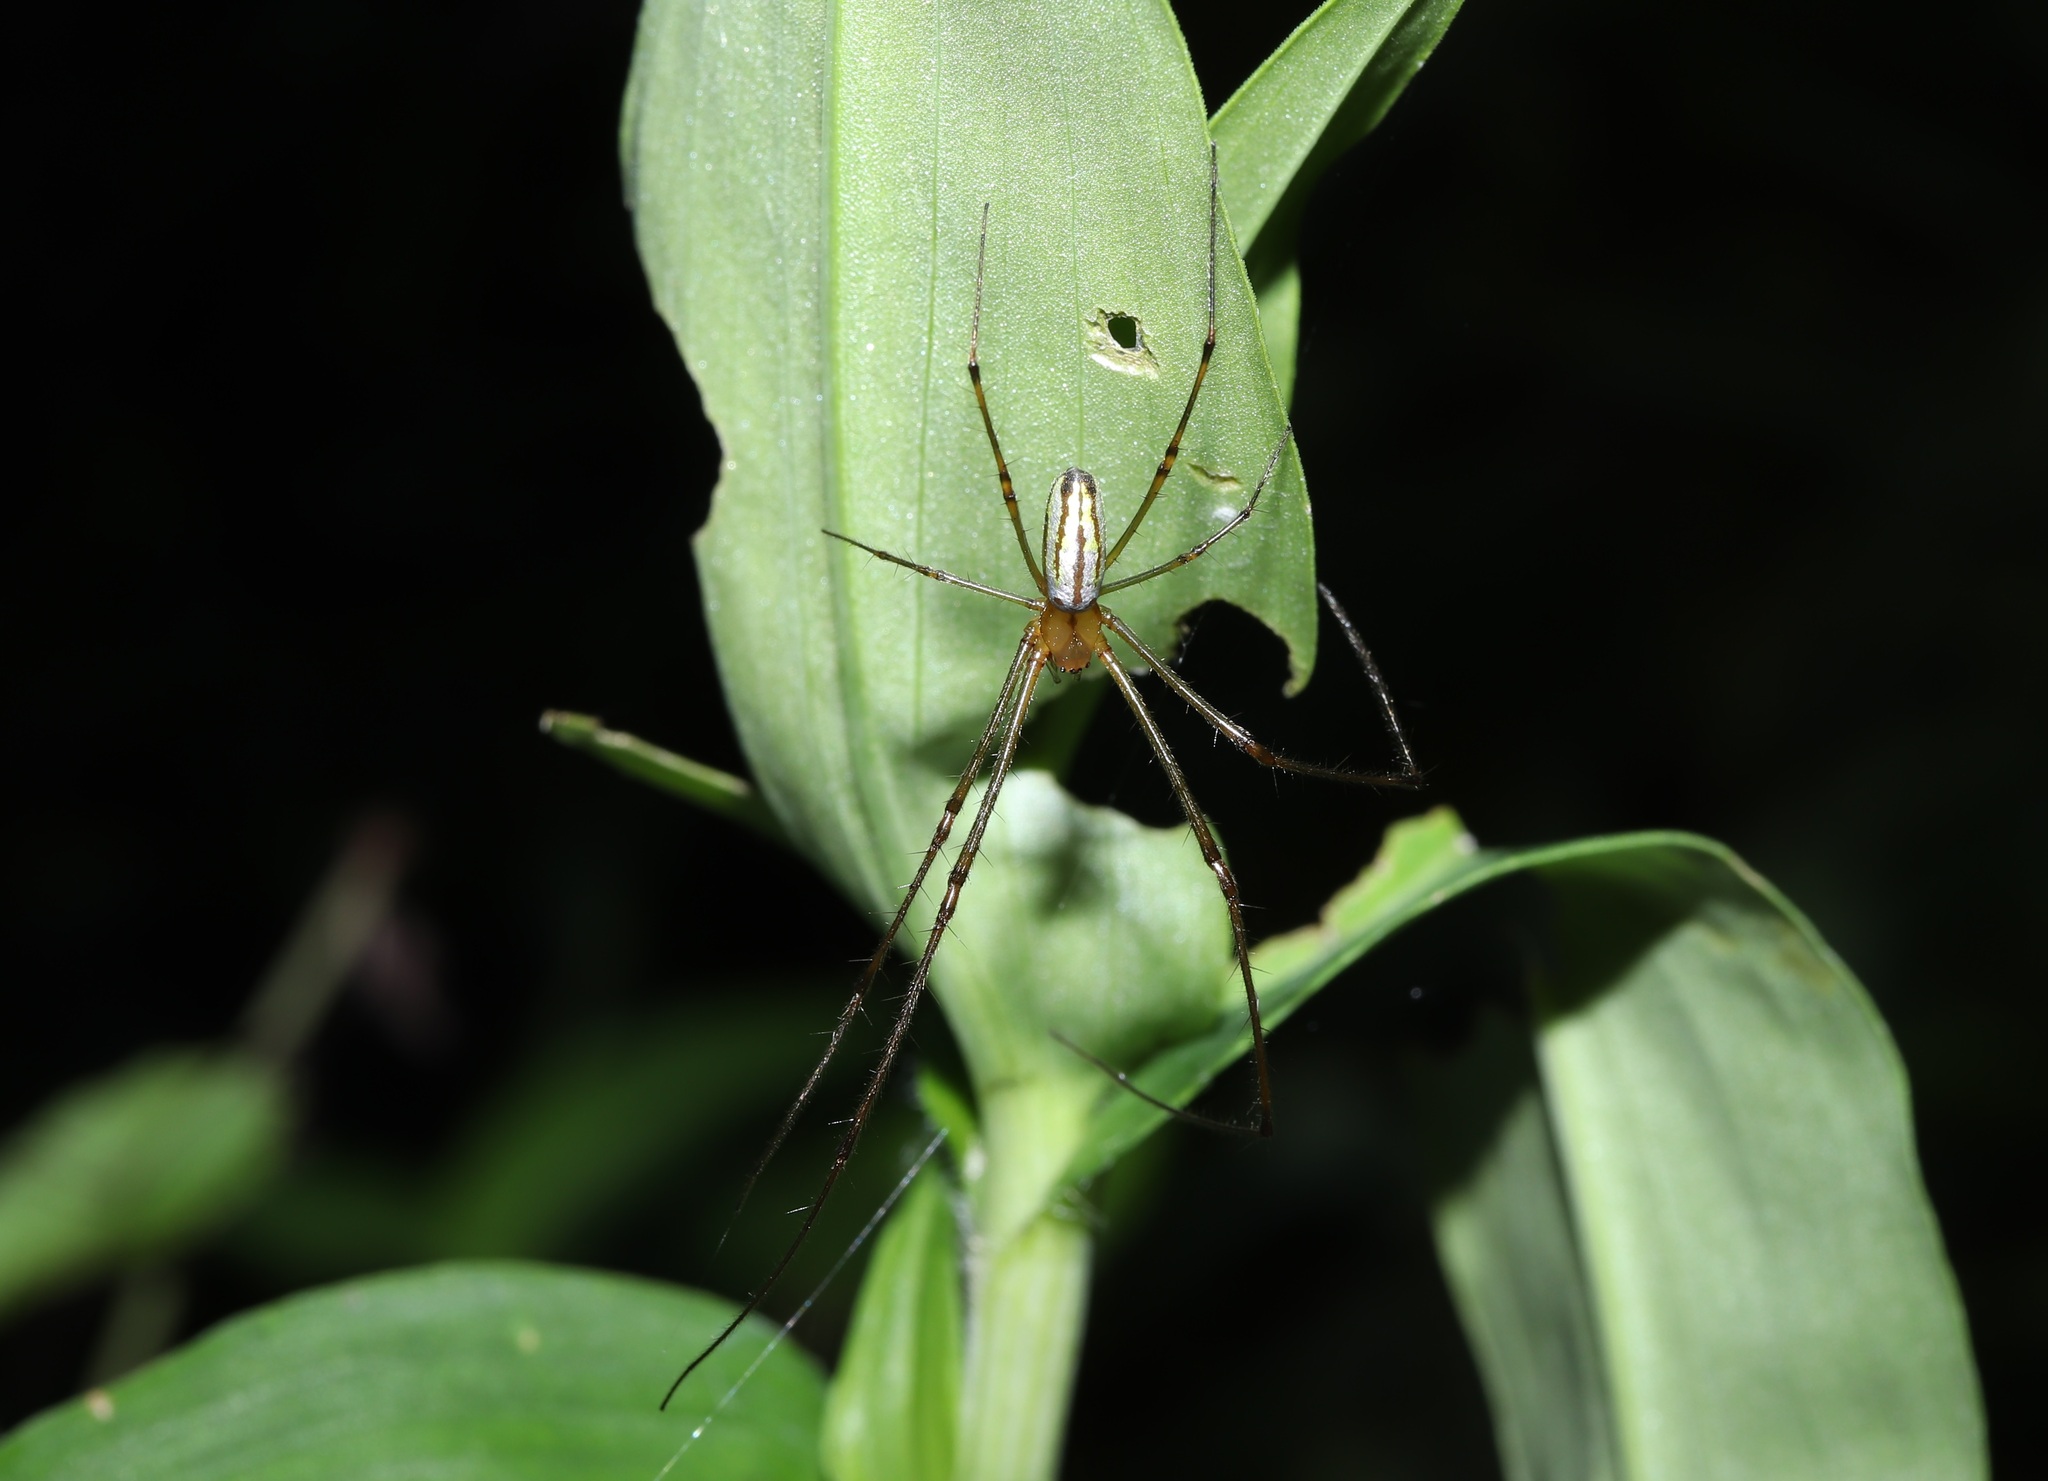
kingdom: Animalia
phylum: Arthropoda
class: Arachnida
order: Araneae
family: Tetragnathidae
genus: Leucauge
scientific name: Leucauge celebesiana
